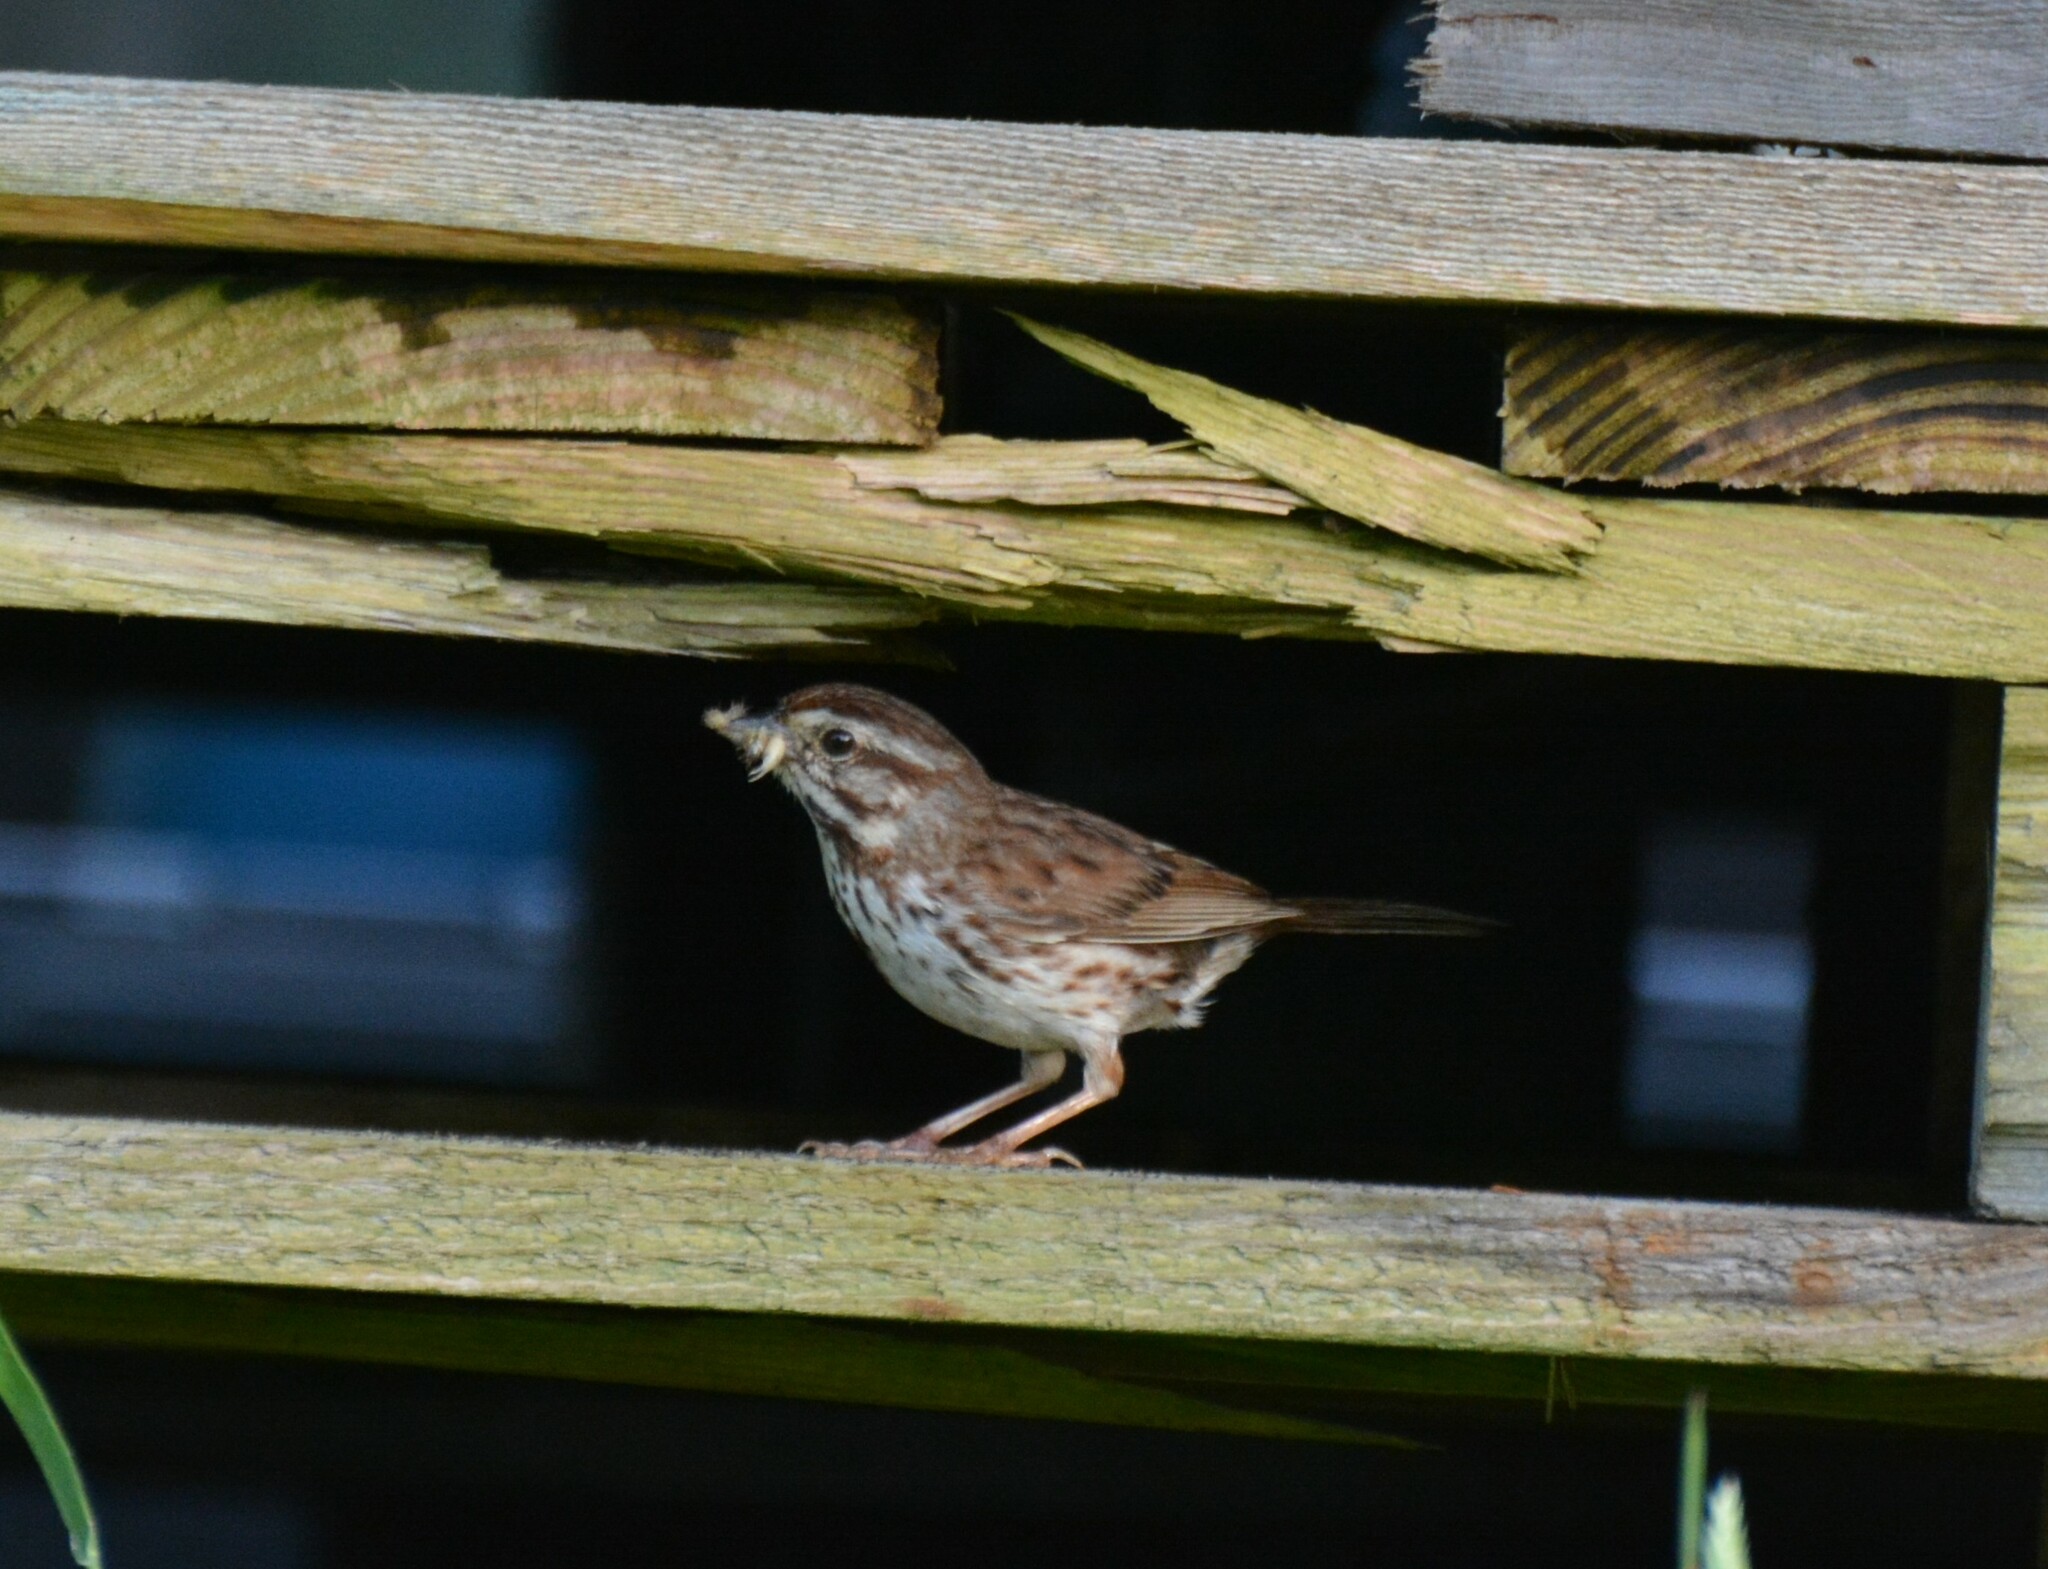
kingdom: Animalia
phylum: Chordata
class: Aves
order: Passeriformes
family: Passerellidae
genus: Melospiza
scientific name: Melospiza melodia
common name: Song sparrow
